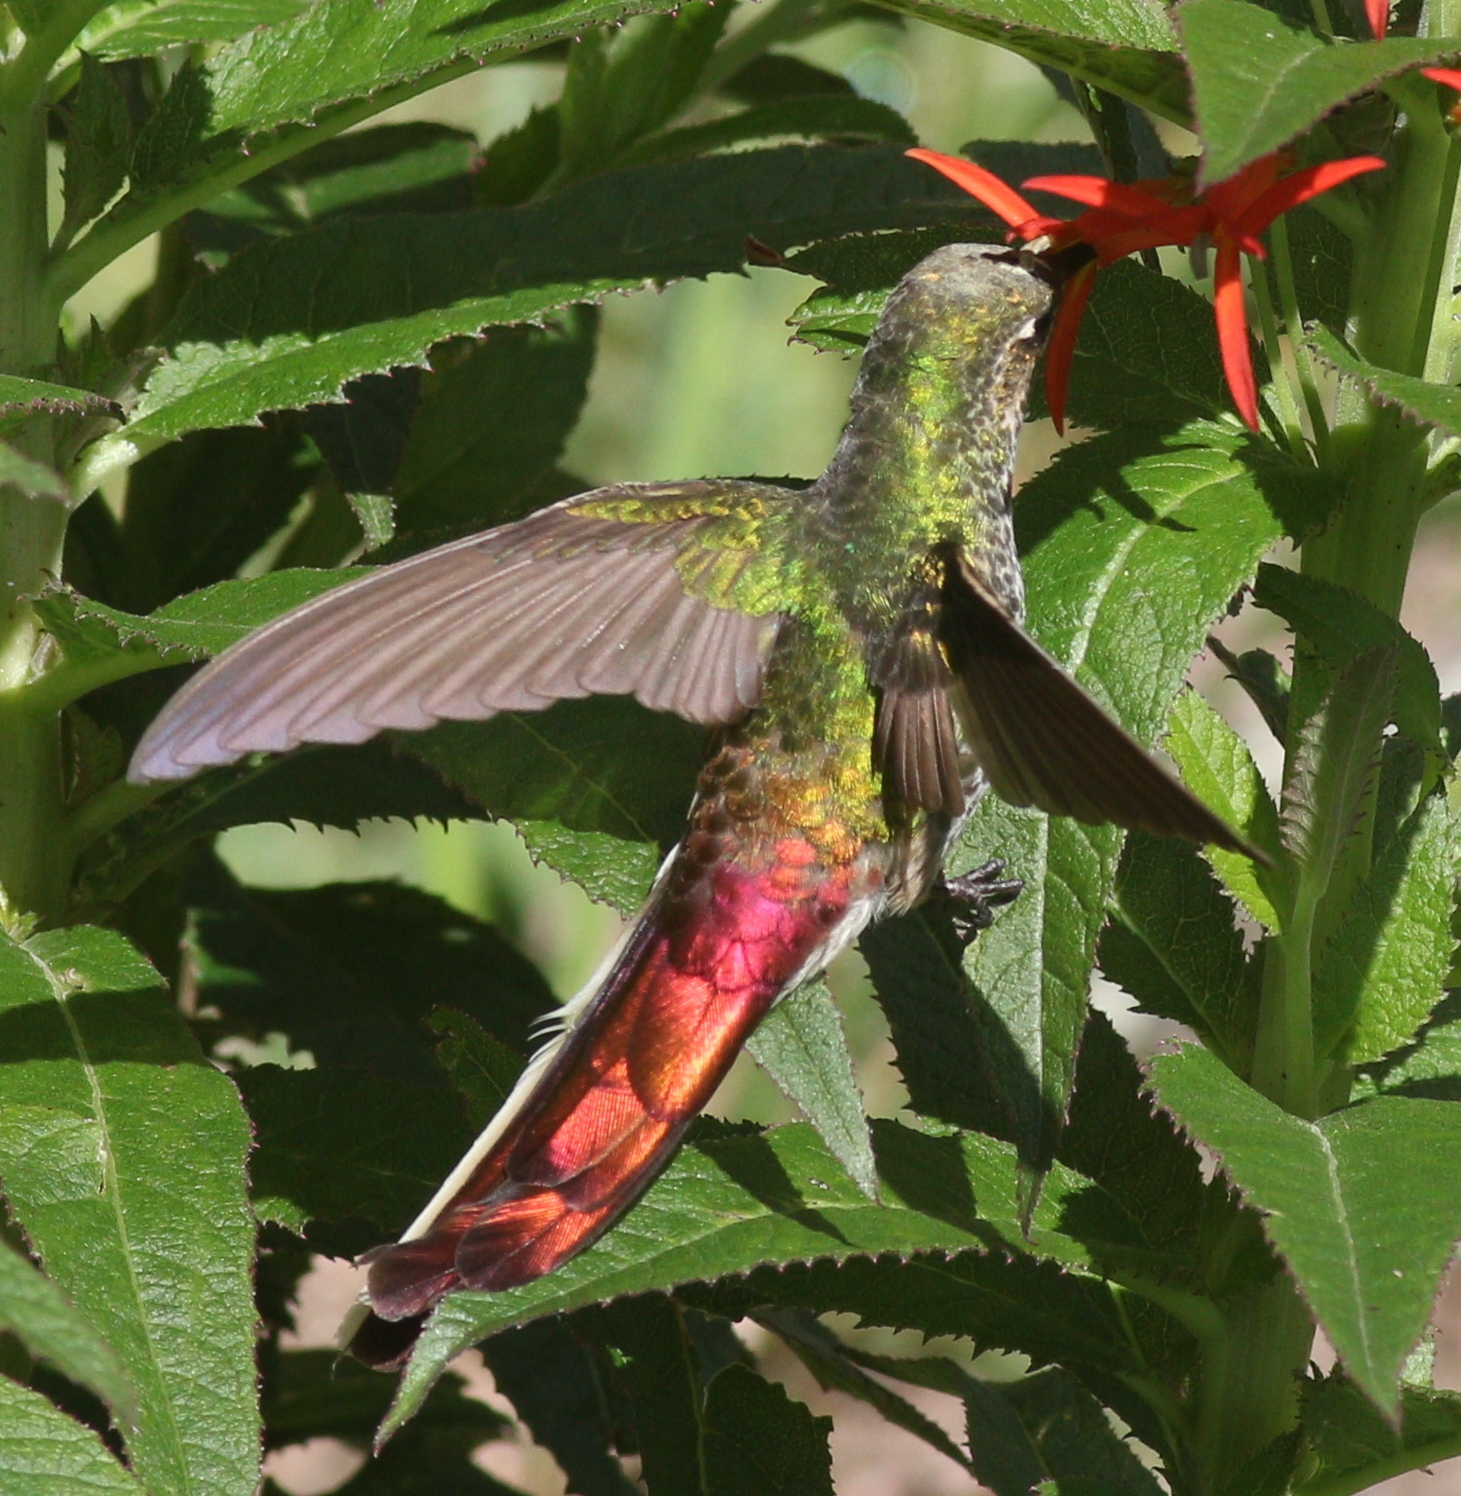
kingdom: Animalia
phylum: Chordata
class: Aves
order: Apodiformes
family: Trochilidae
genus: Sappho
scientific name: Sappho sparganurus
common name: Red-tailed comet
